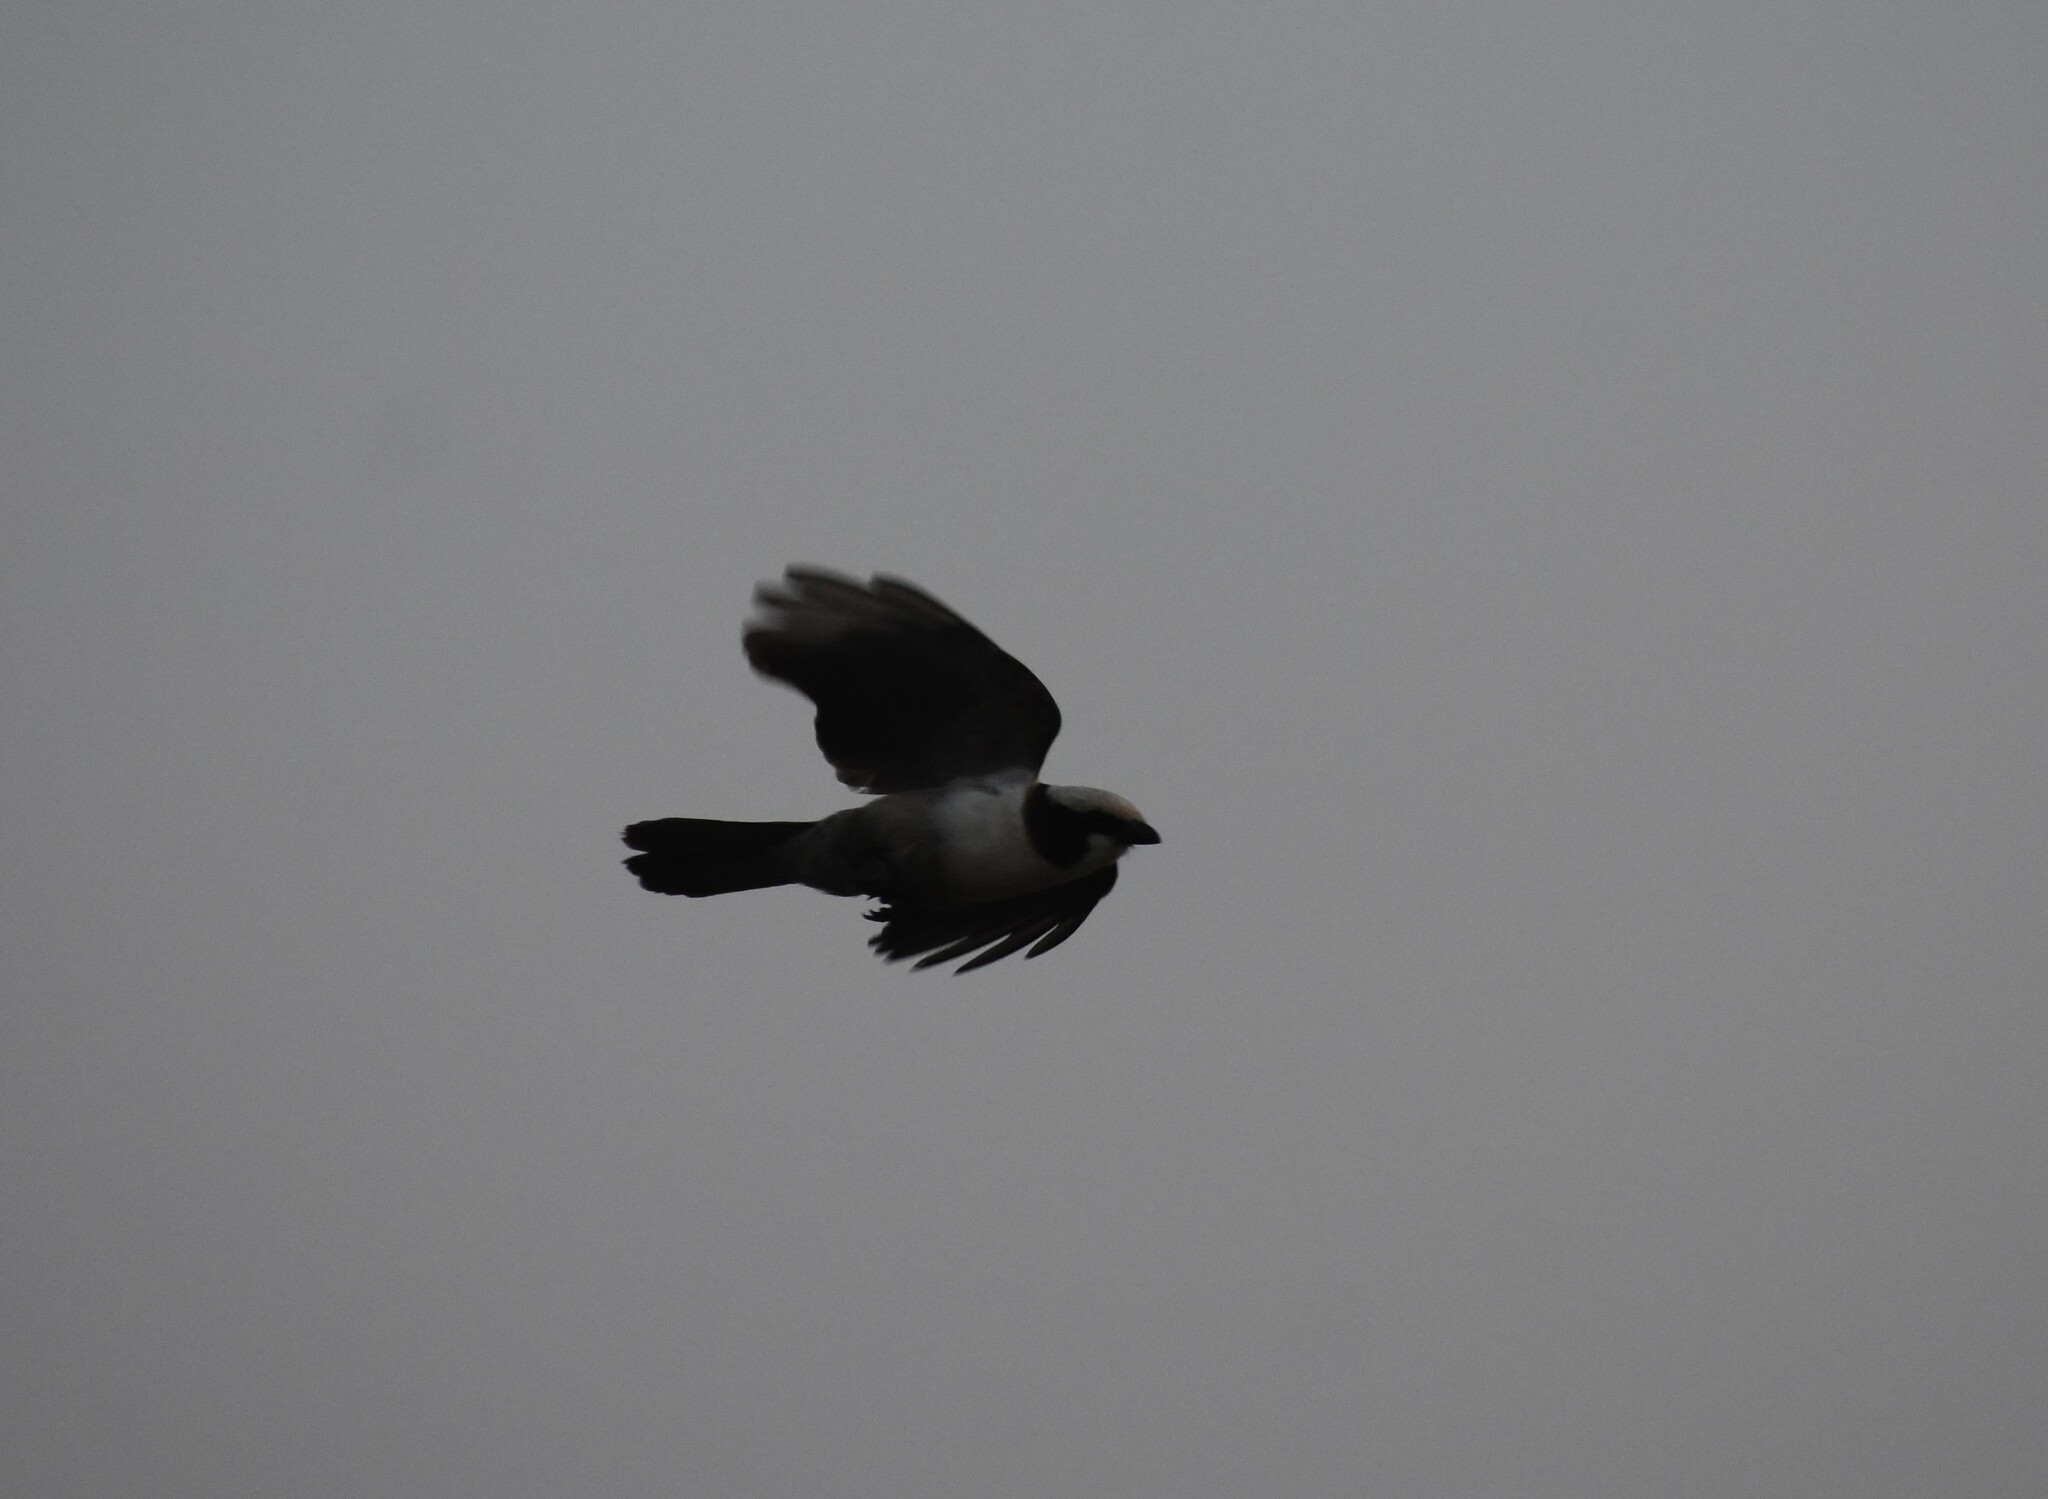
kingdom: Animalia
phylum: Chordata
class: Aves
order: Passeriformes
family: Laniidae
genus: Eurocephalus
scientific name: Eurocephalus anguitimens
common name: Southern white-crowned shrike
